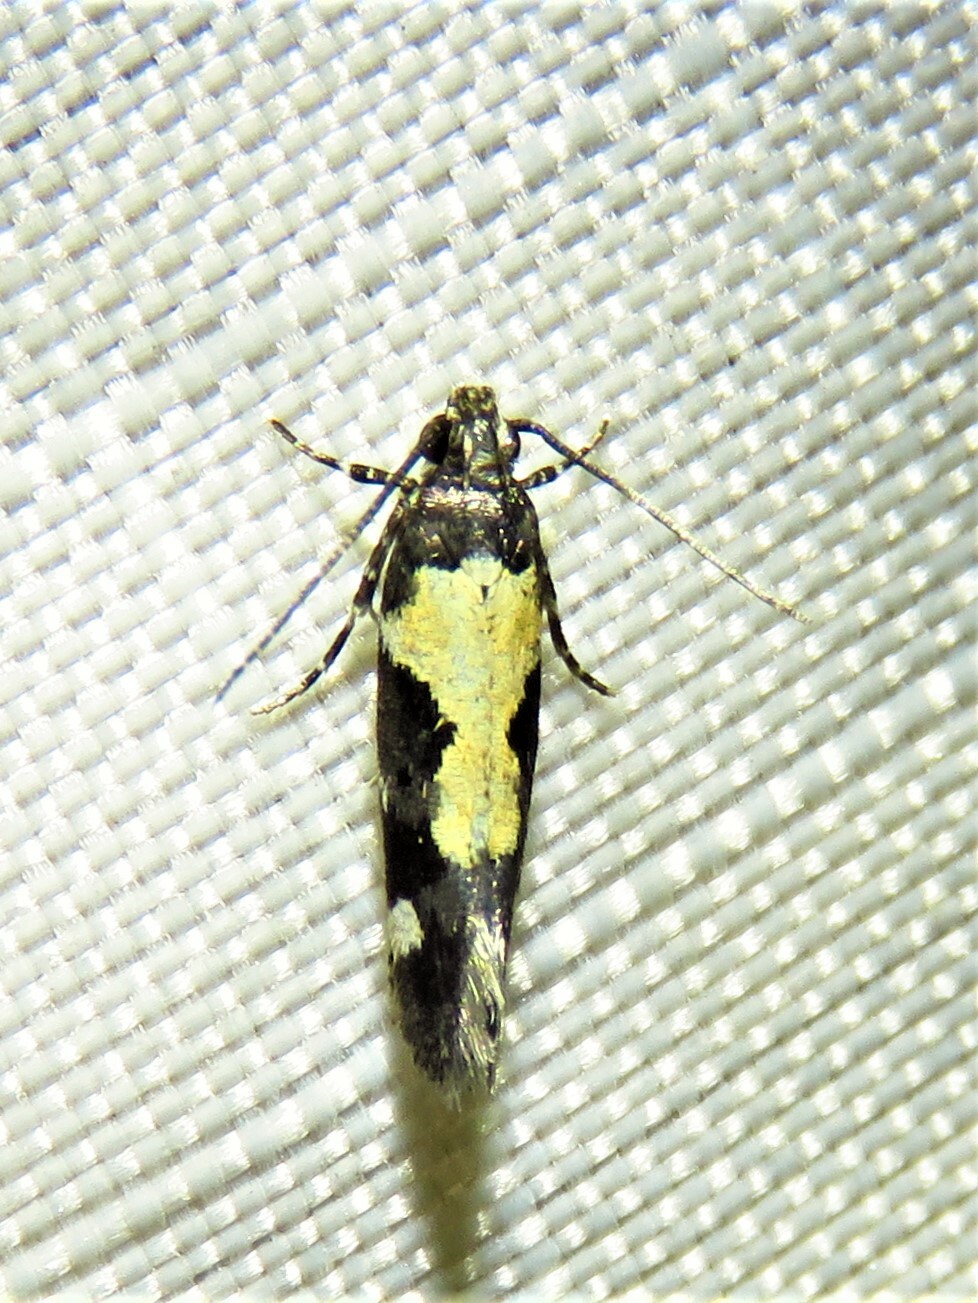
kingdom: Animalia
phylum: Arthropoda
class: Insecta
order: Lepidoptera
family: Gelechiidae
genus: Stegasta
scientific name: Stegasta bosqueella
